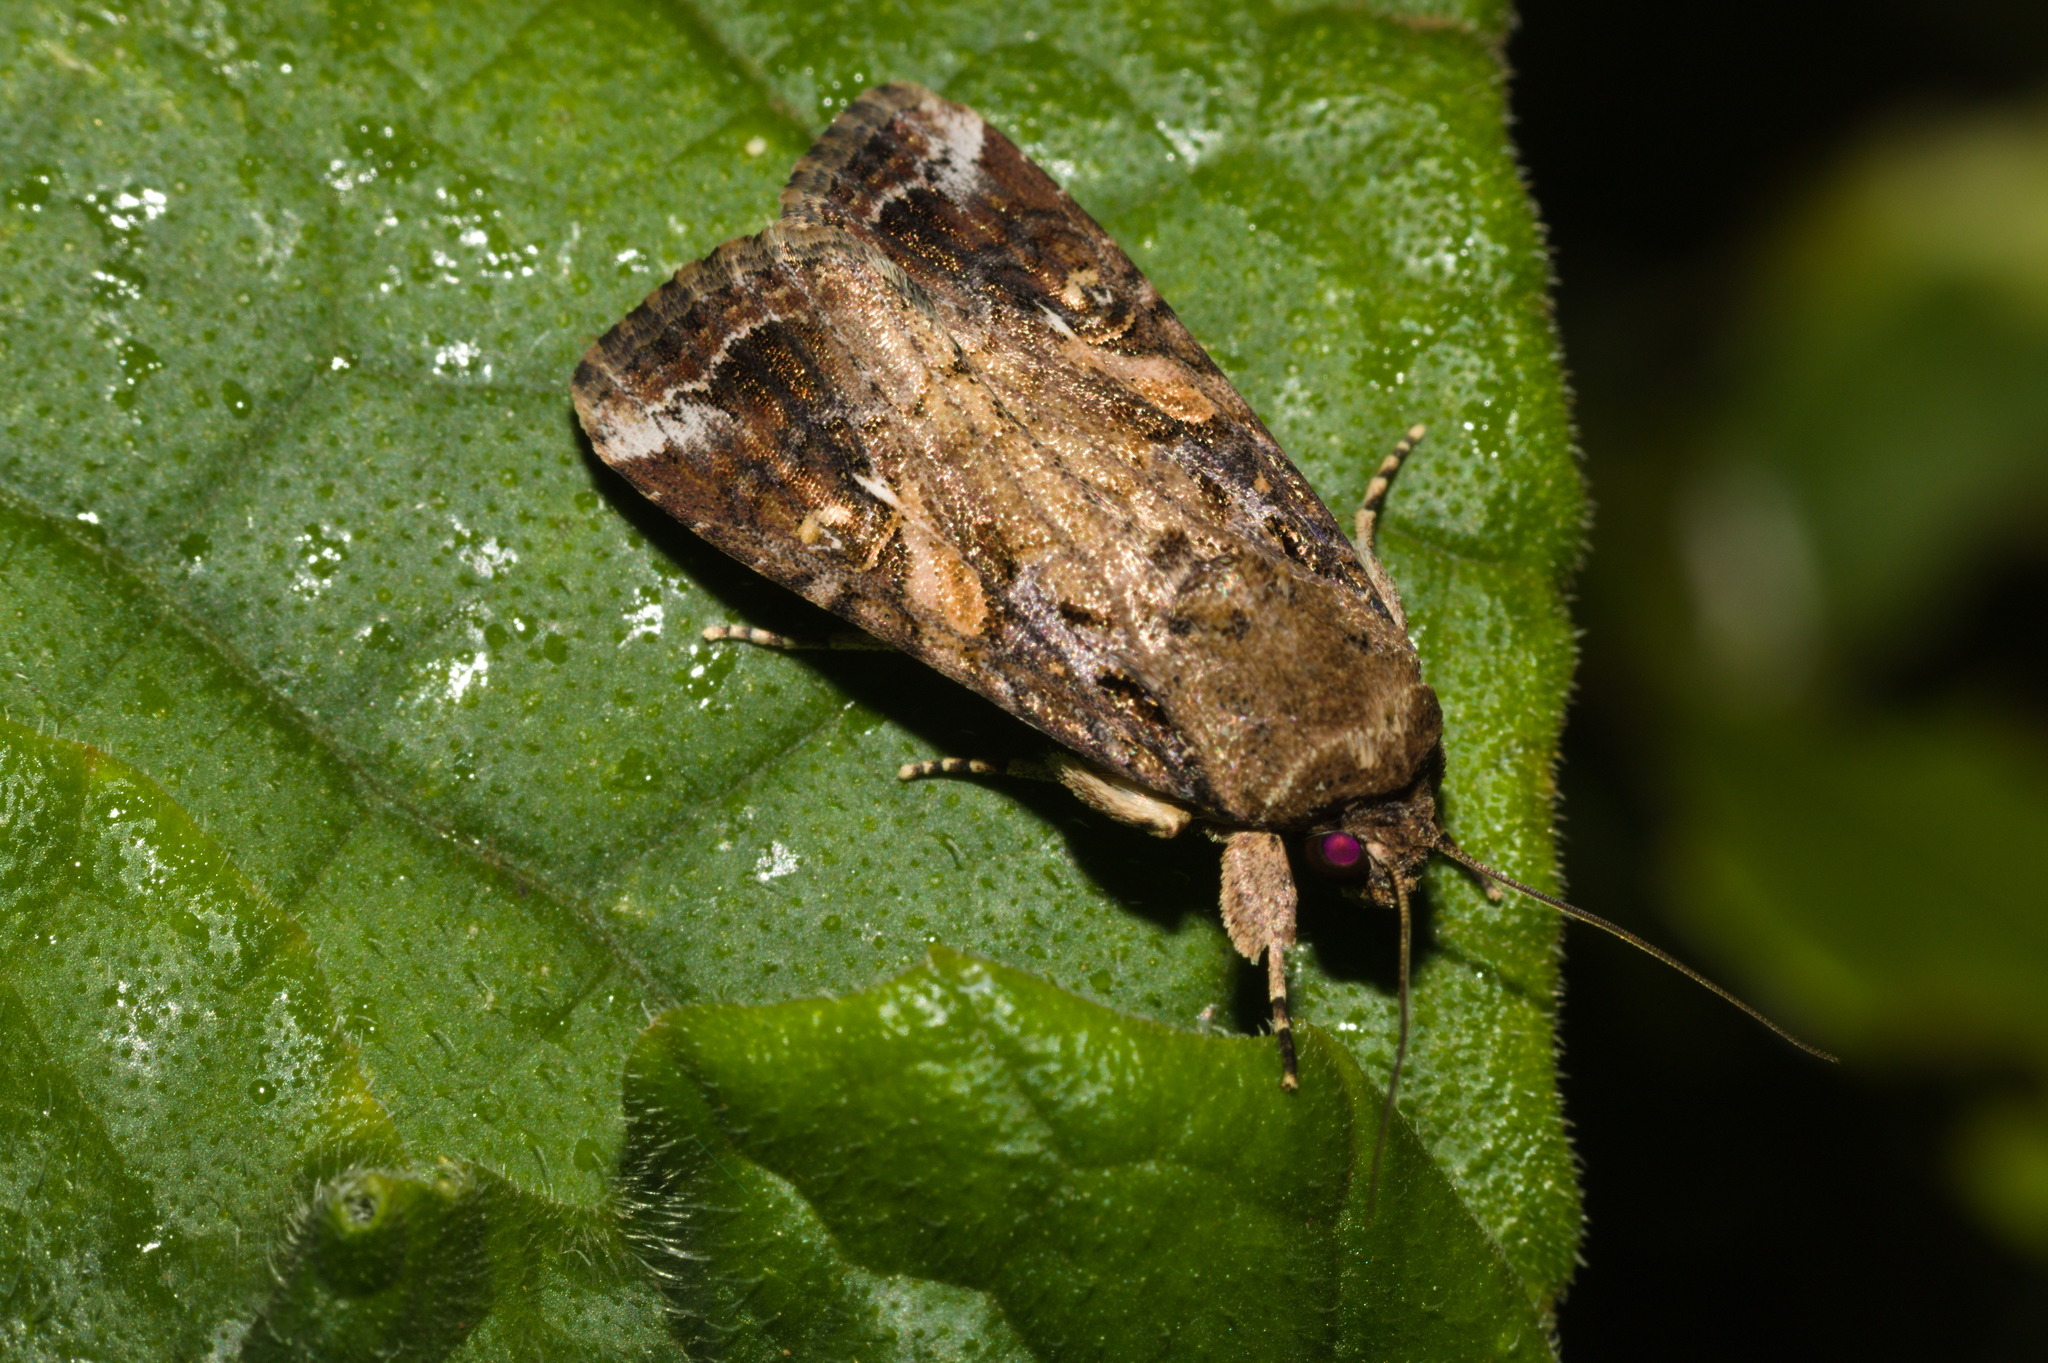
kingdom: Animalia
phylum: Arthropoda
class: Insecta
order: Lepidoptera
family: Noctuidae
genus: Spodoptera
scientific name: Spodoptera frugiperda
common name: Fall armyworm
